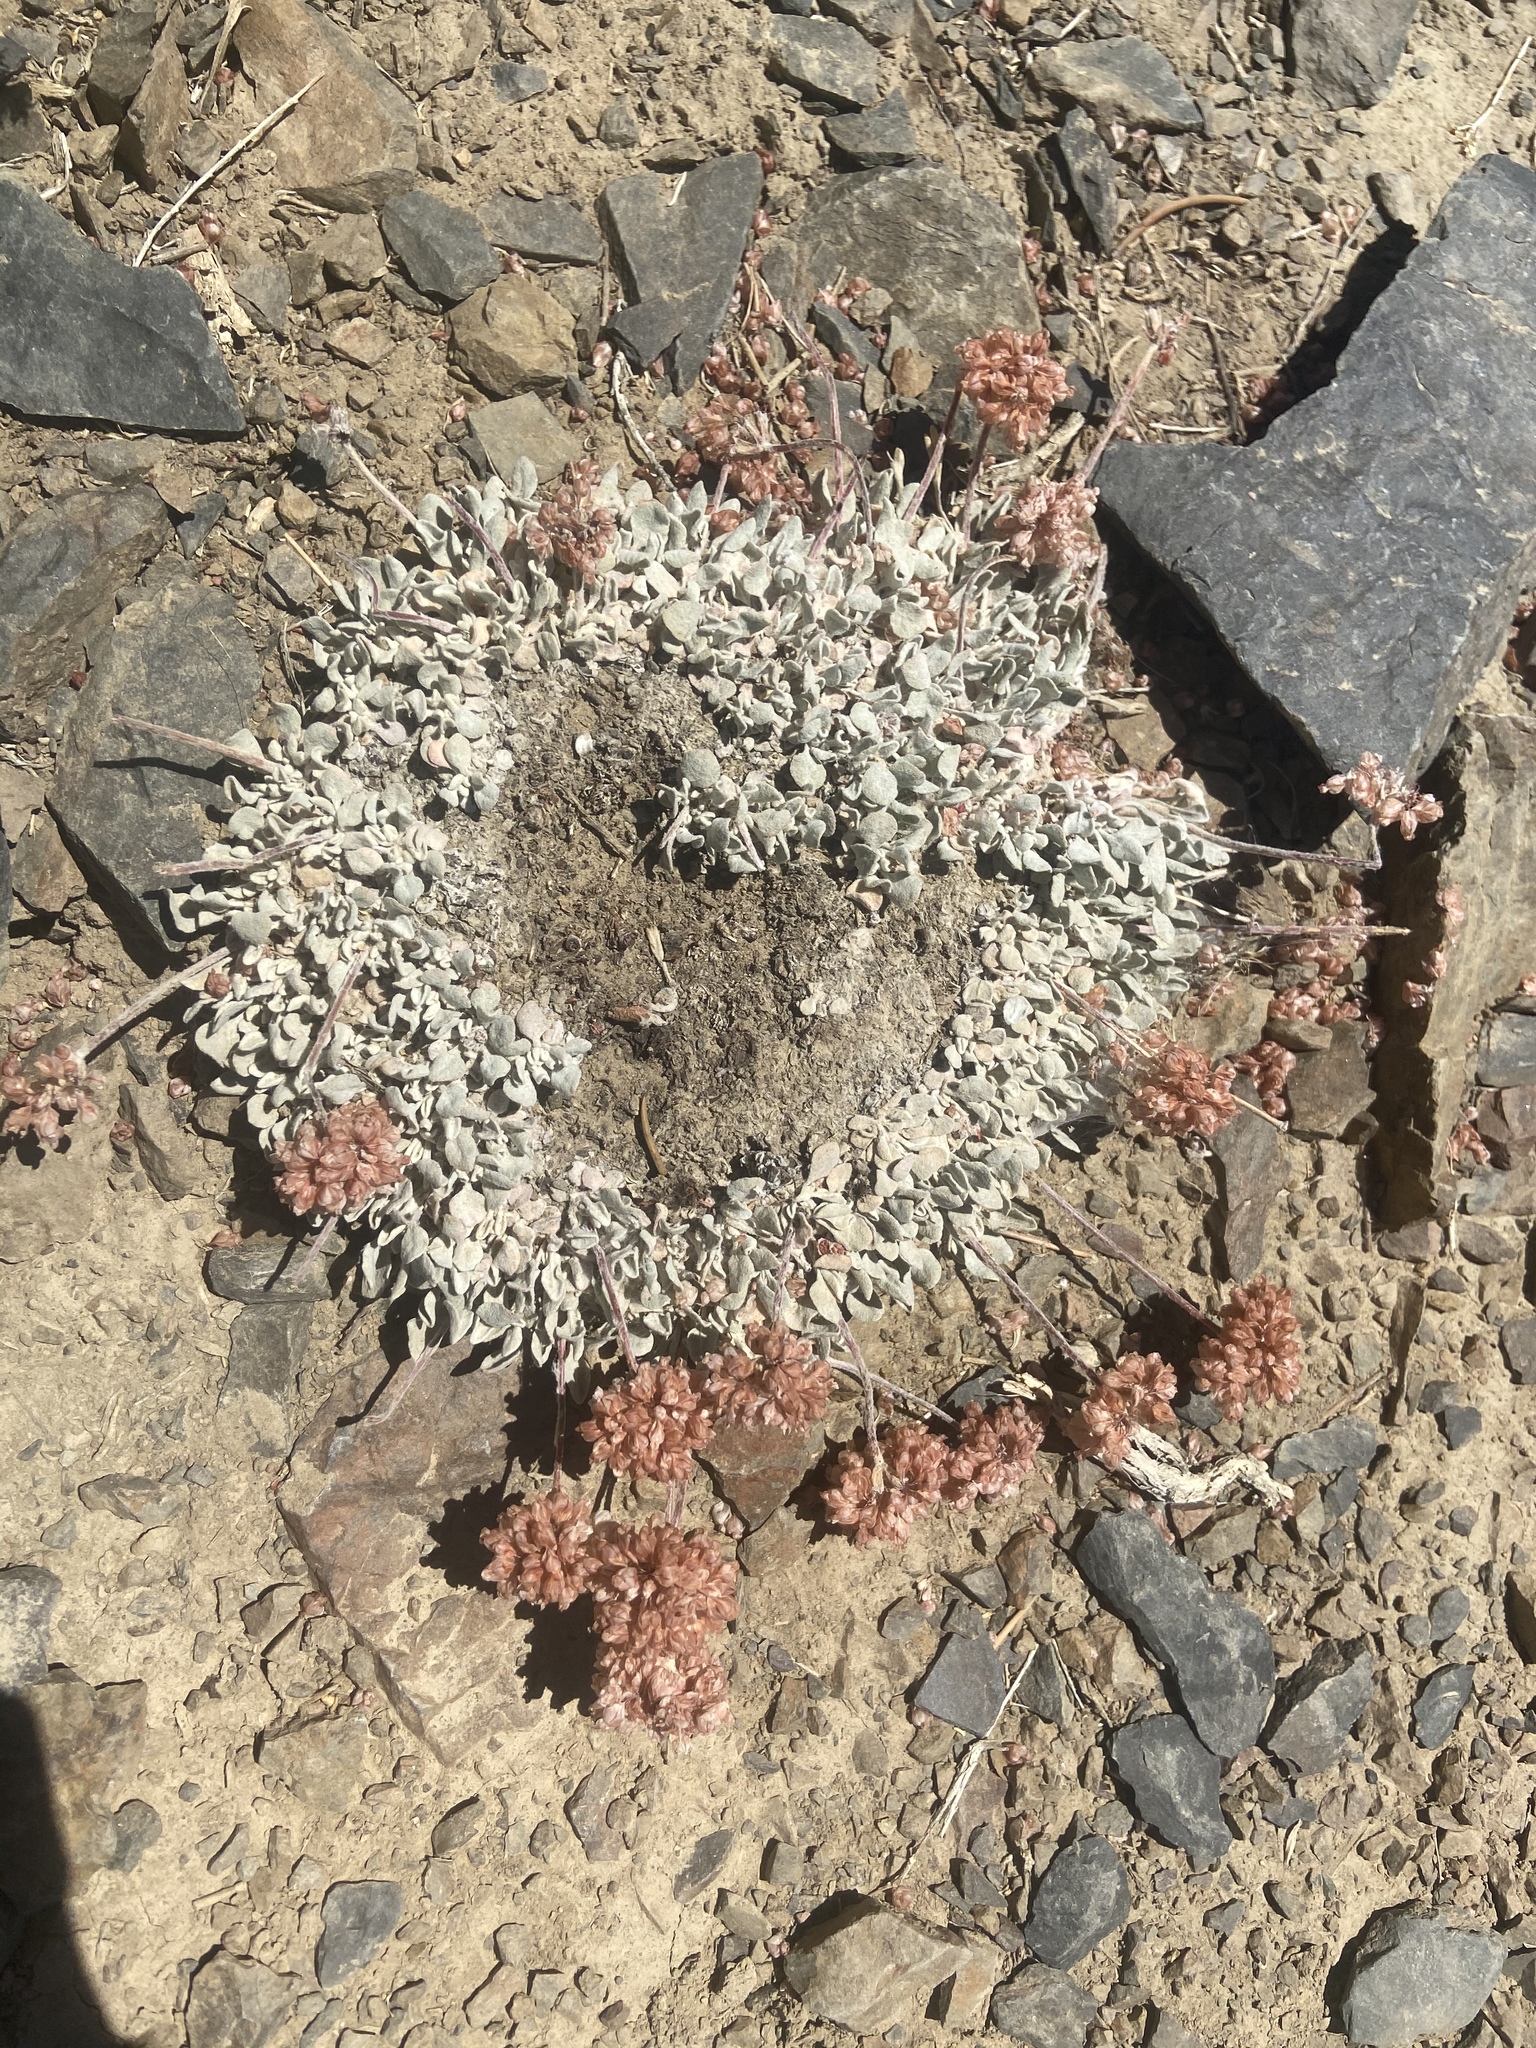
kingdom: Plantae
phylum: Tracheophyta
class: Magnoliopsida
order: Caryophyllales
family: Polygonaceae
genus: Eriogonum
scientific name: Eriogonum ovalifolium
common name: Cushion buckwheat
